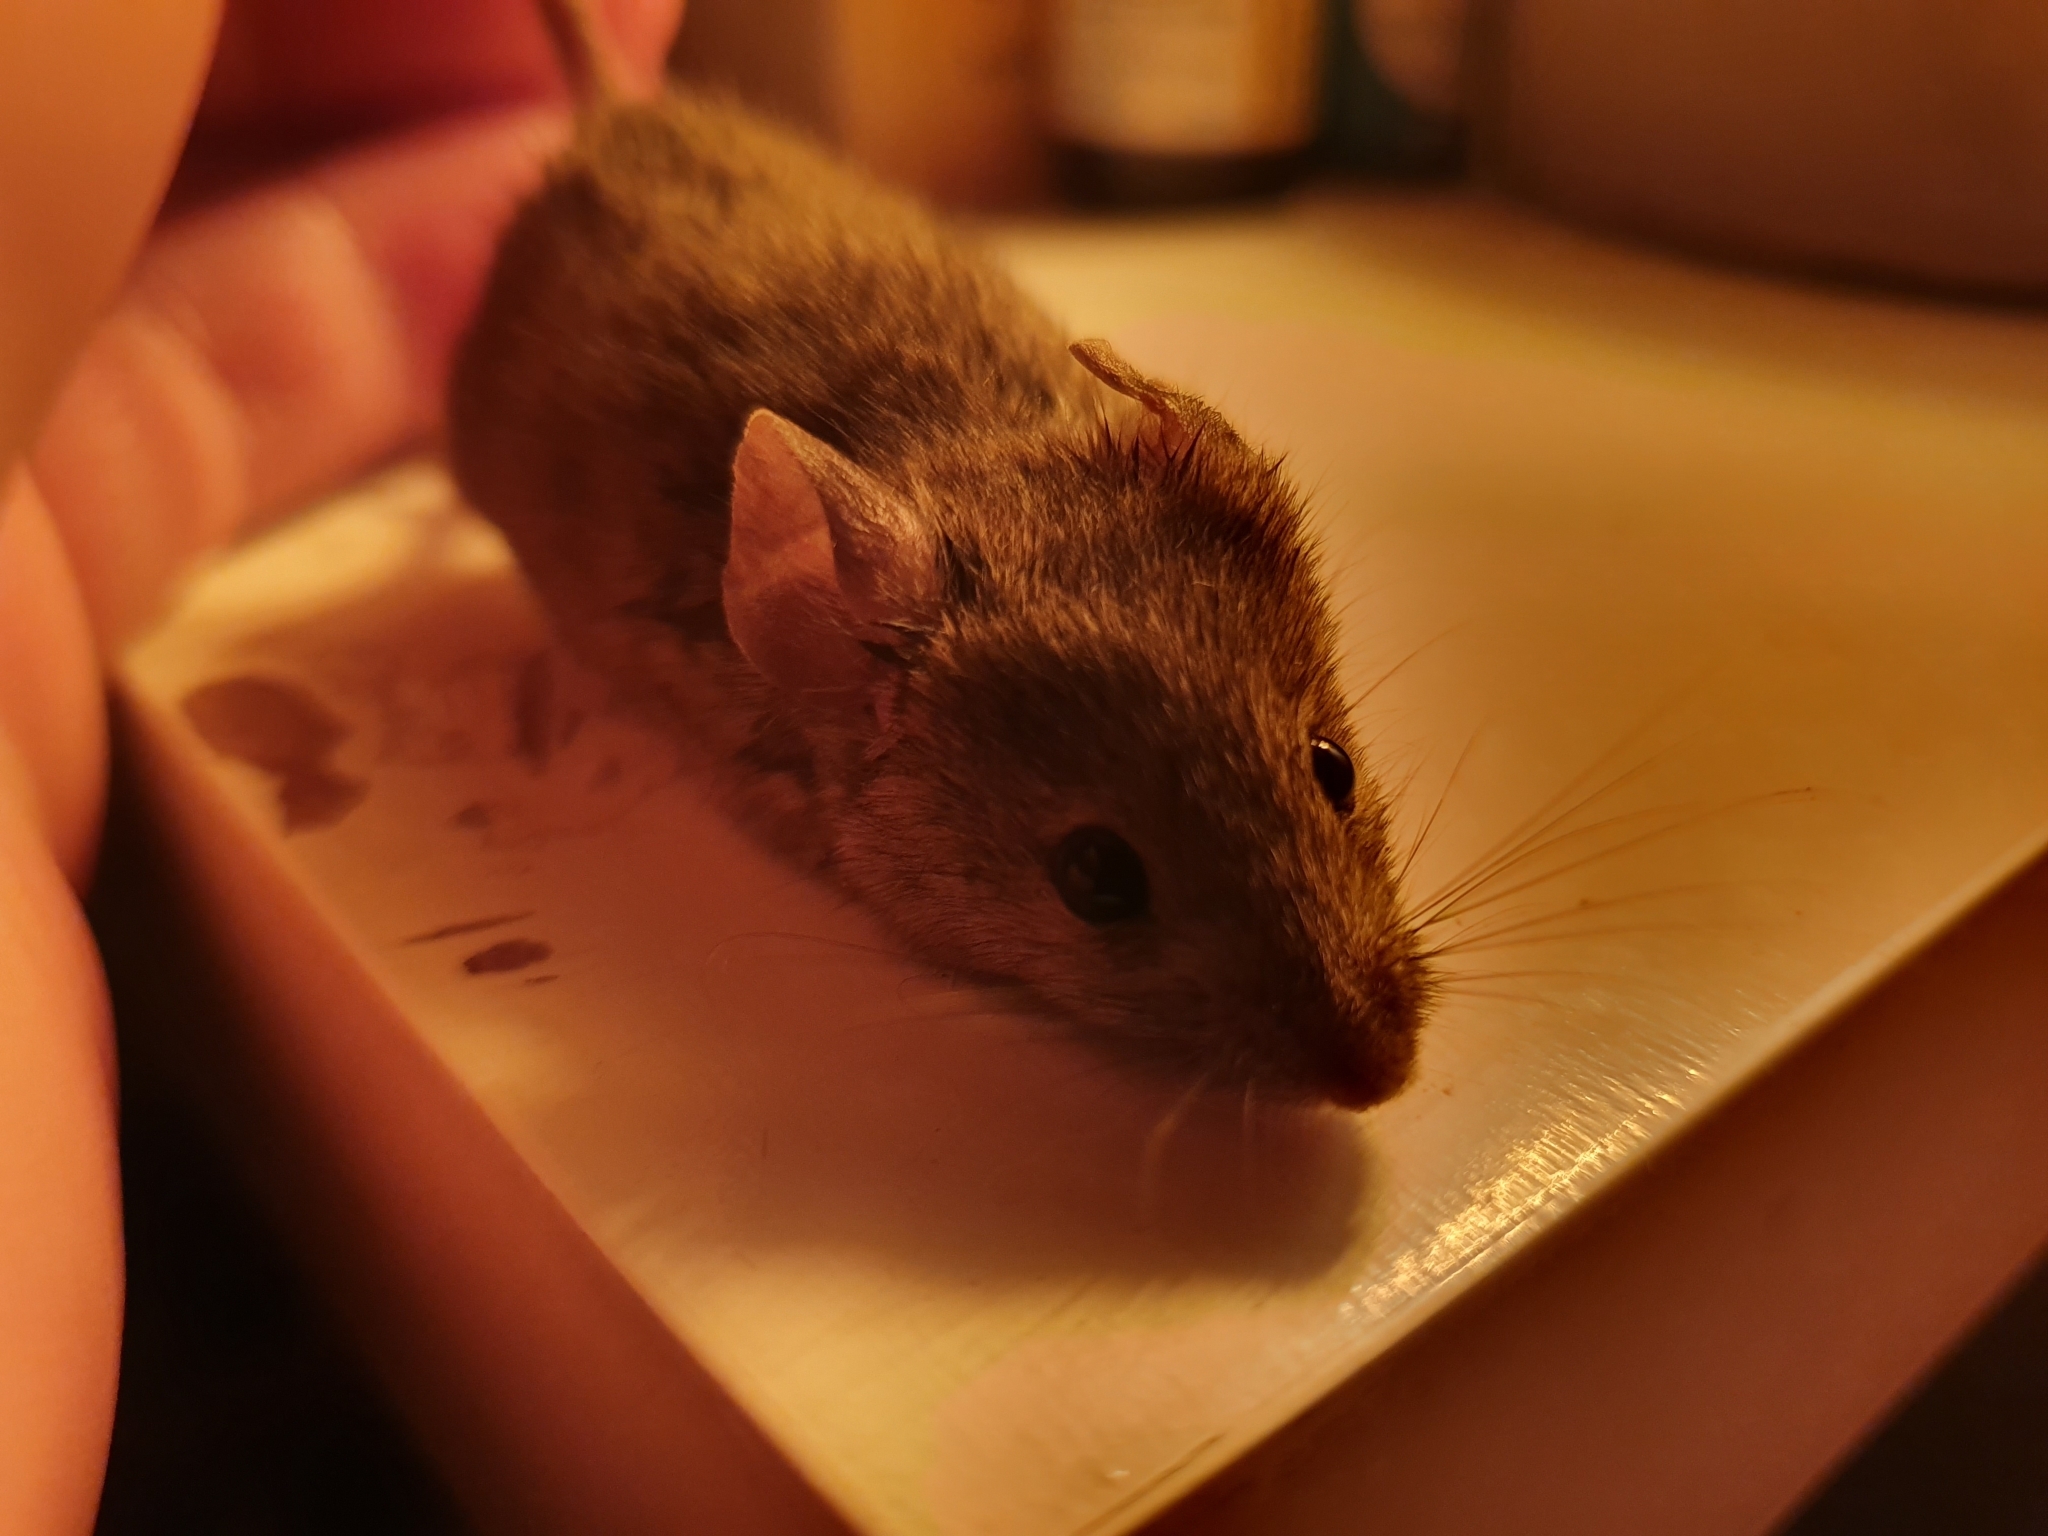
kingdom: Animalia
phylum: Chordata
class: Mammalia
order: Rodentia
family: Muridae
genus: Mus
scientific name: Mus musculus
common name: House mouse
